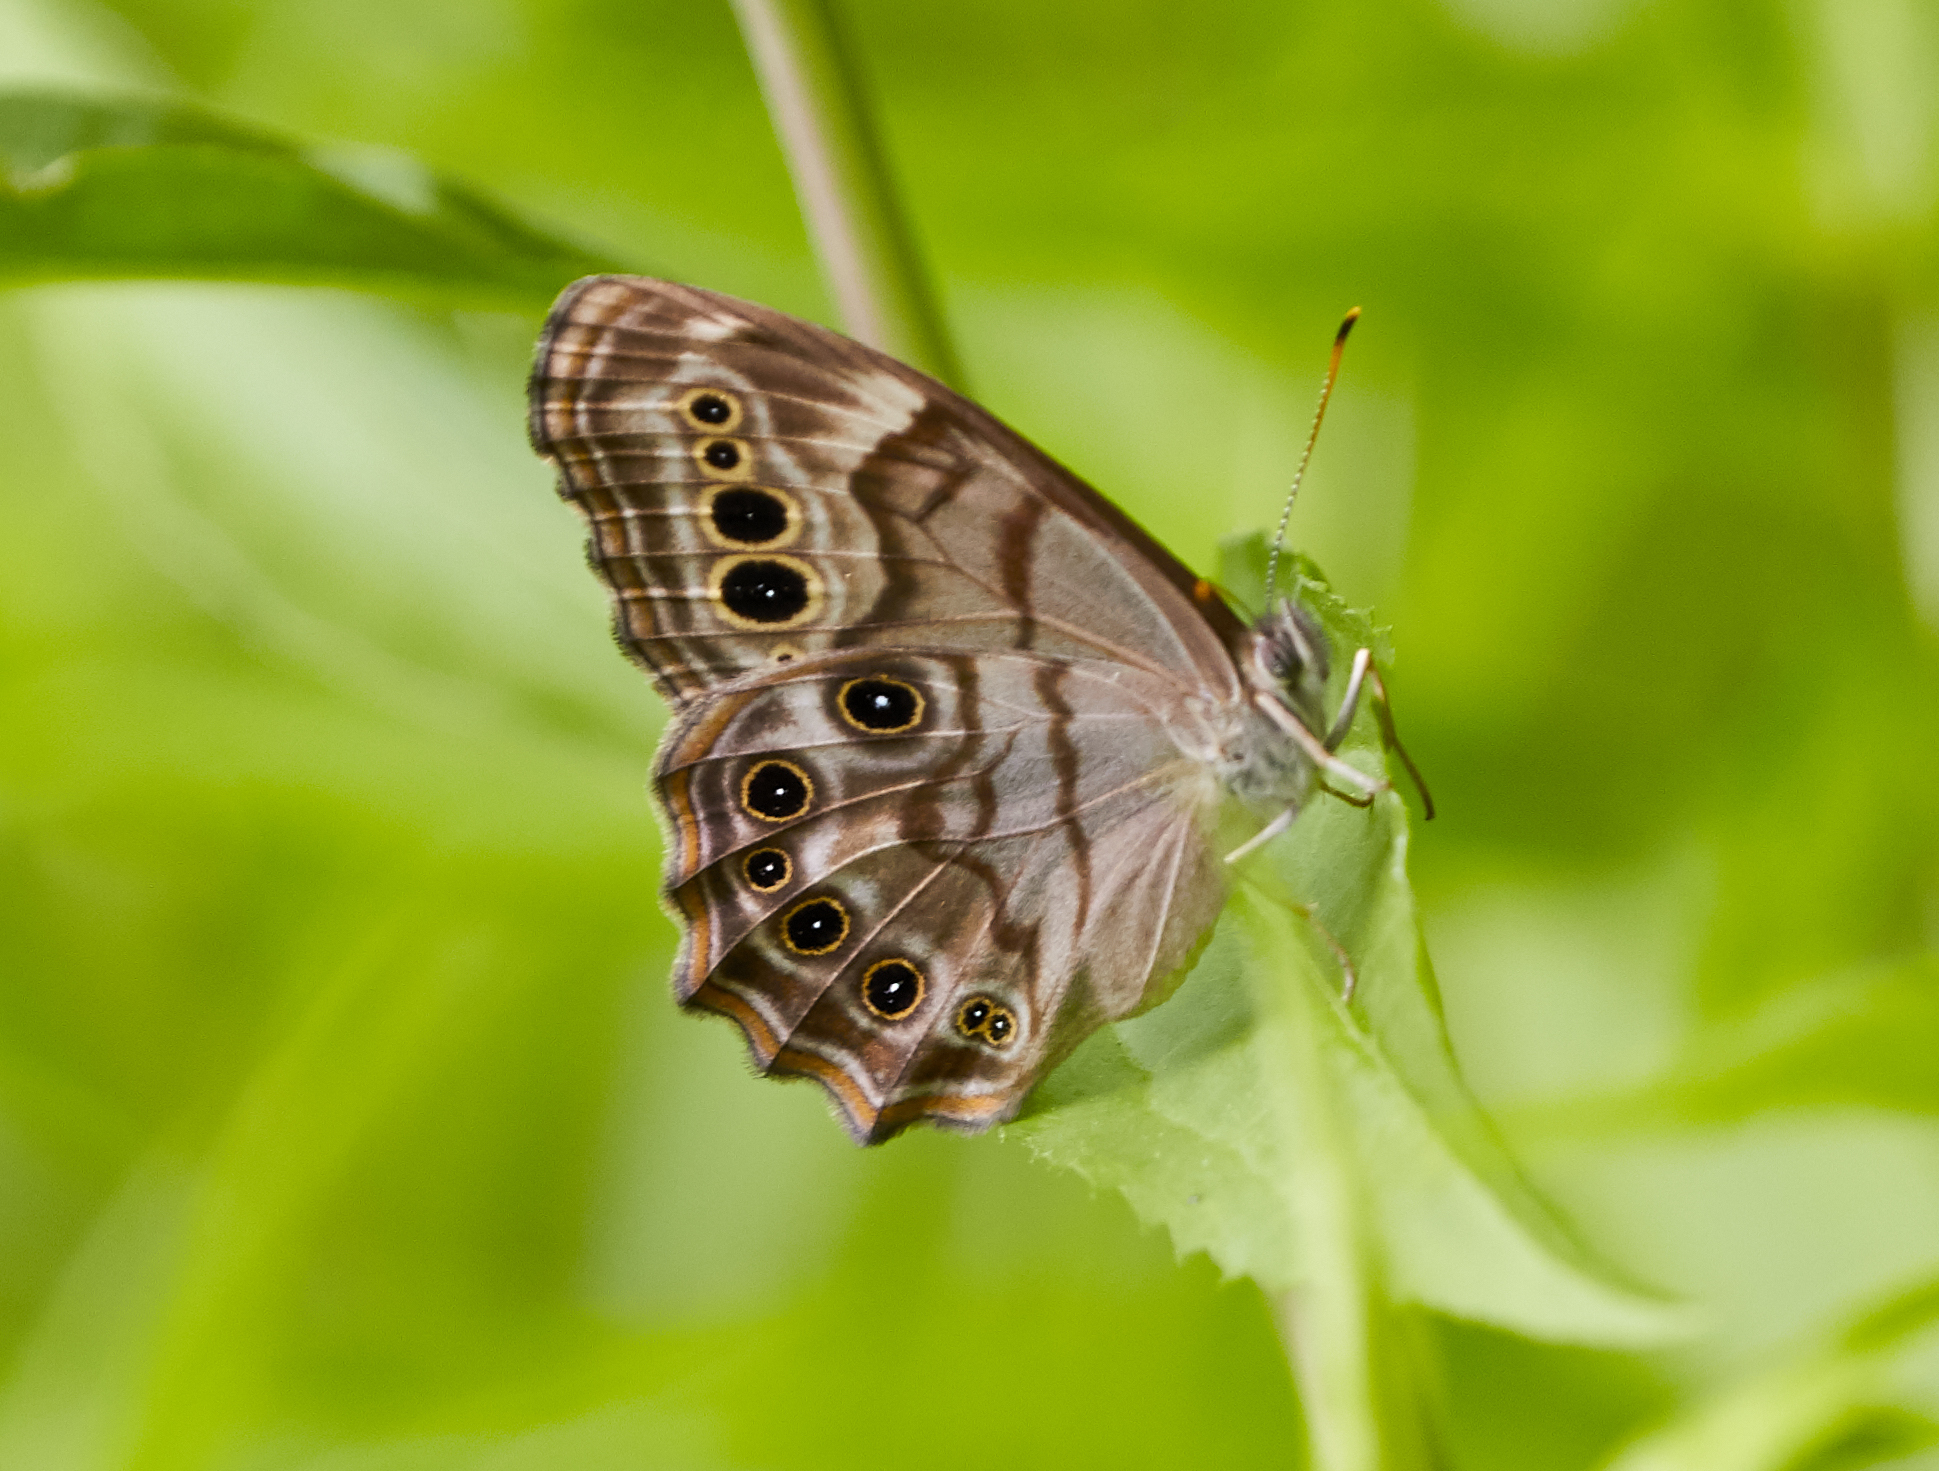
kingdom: Animalia
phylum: Arthropoda
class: Insecta
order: Lepidoptera
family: Nymphalidae
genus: Lethe
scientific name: Lethe anthedon
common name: Northern pearly-eye
